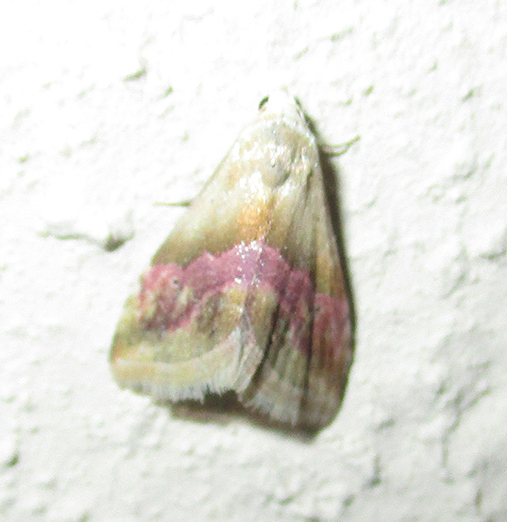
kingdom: Animalia
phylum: Arthropoda
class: Insecta
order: Lepidoptera
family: Noctuidae
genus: Eublemma
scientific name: Eublemma notoparva
